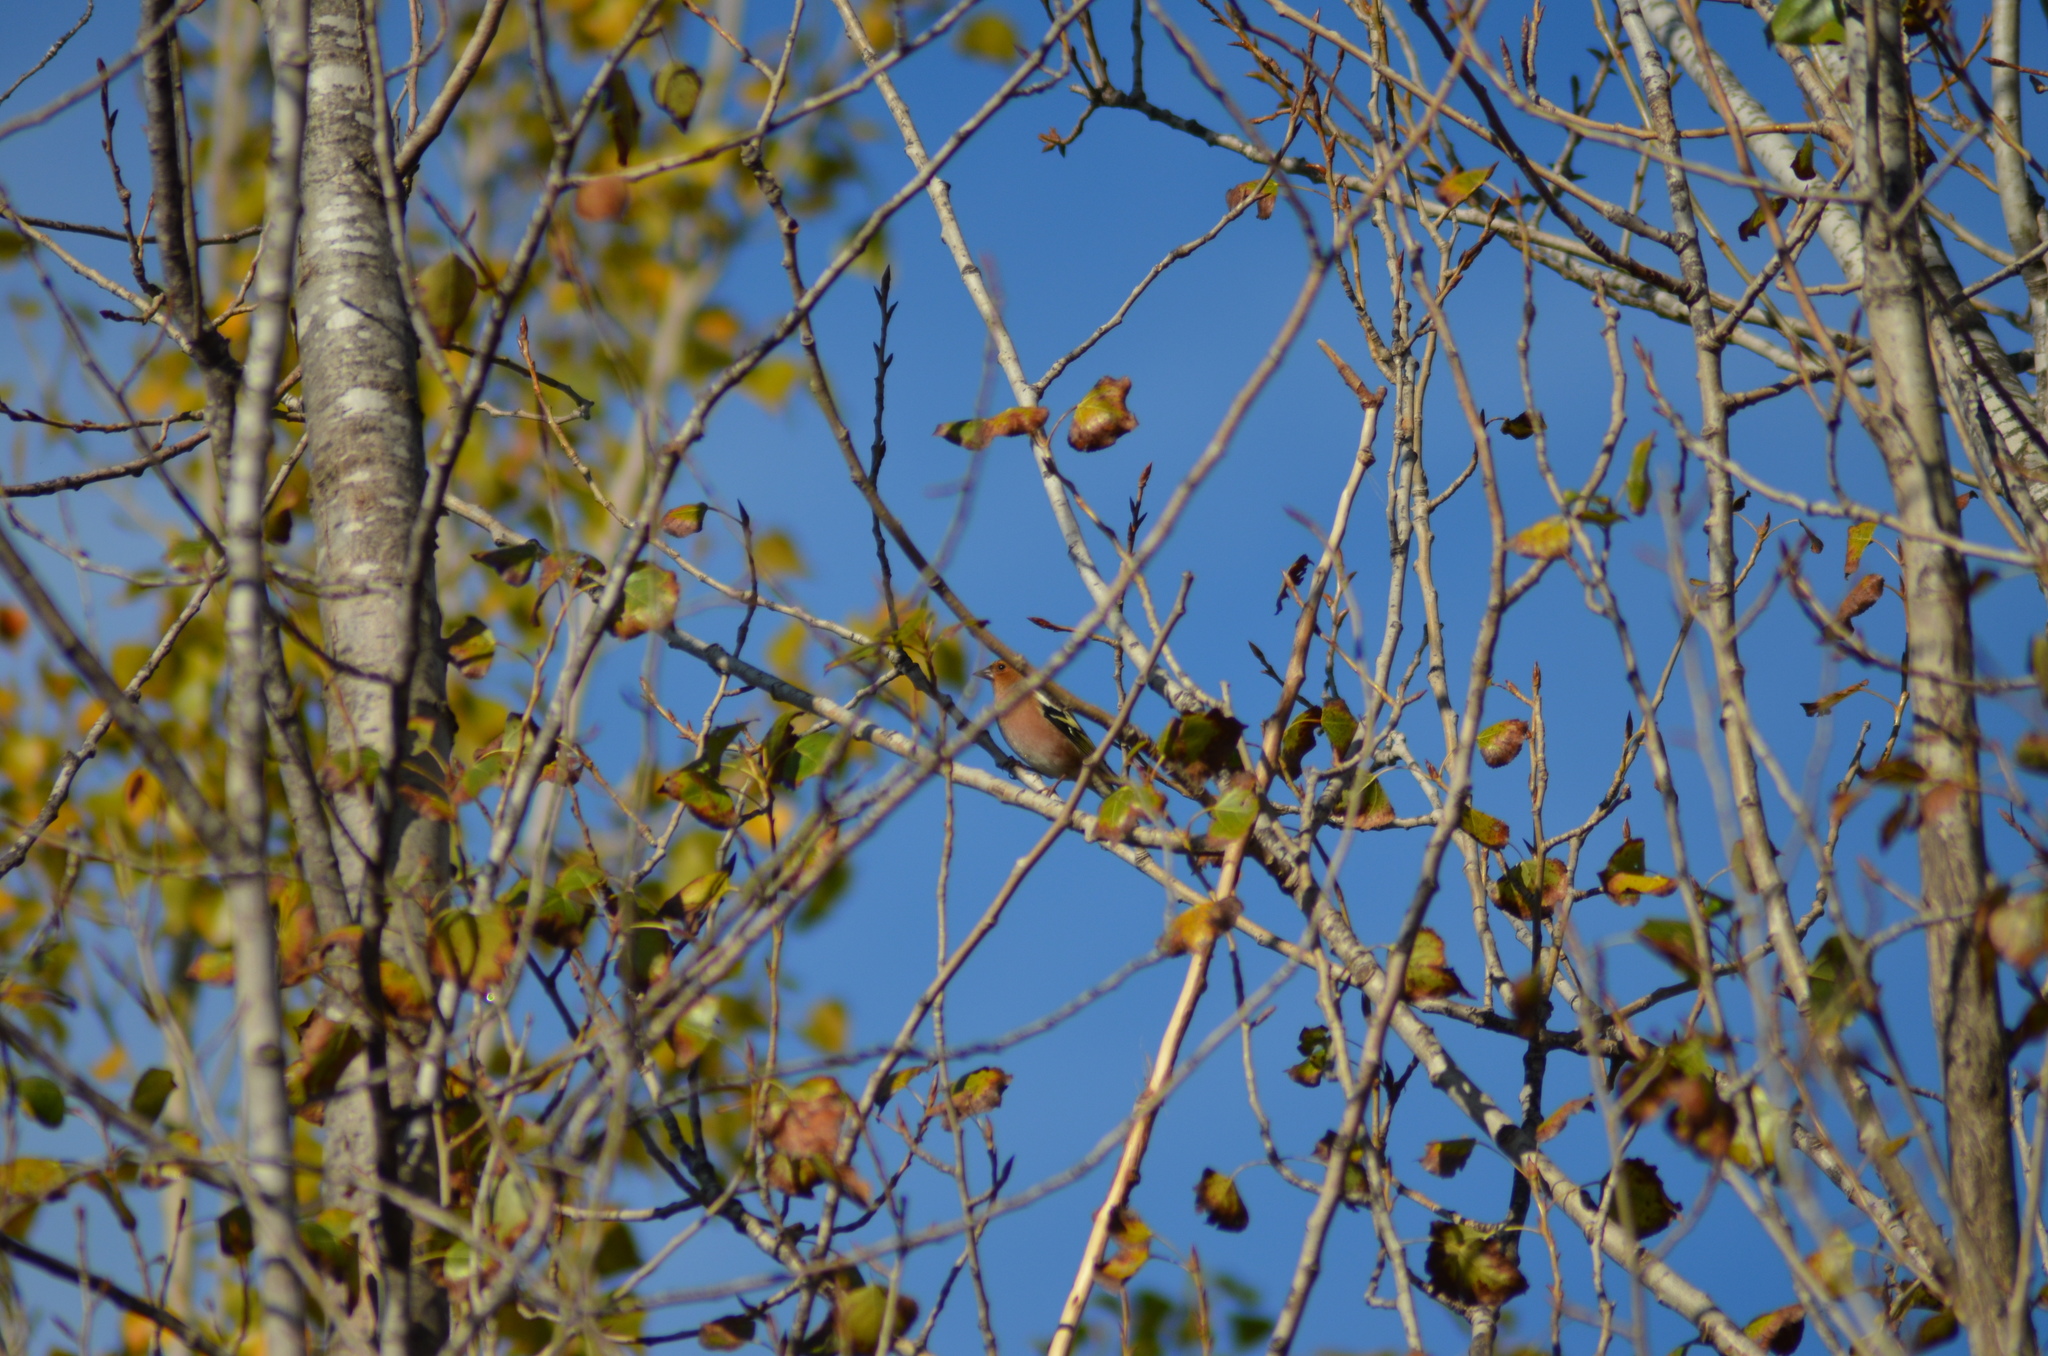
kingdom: Animalia
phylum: Chordata
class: Aves
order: Passeriformes
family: Fringillidae
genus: Fringilla
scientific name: Fringilla coelebs
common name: Common chaffinch
